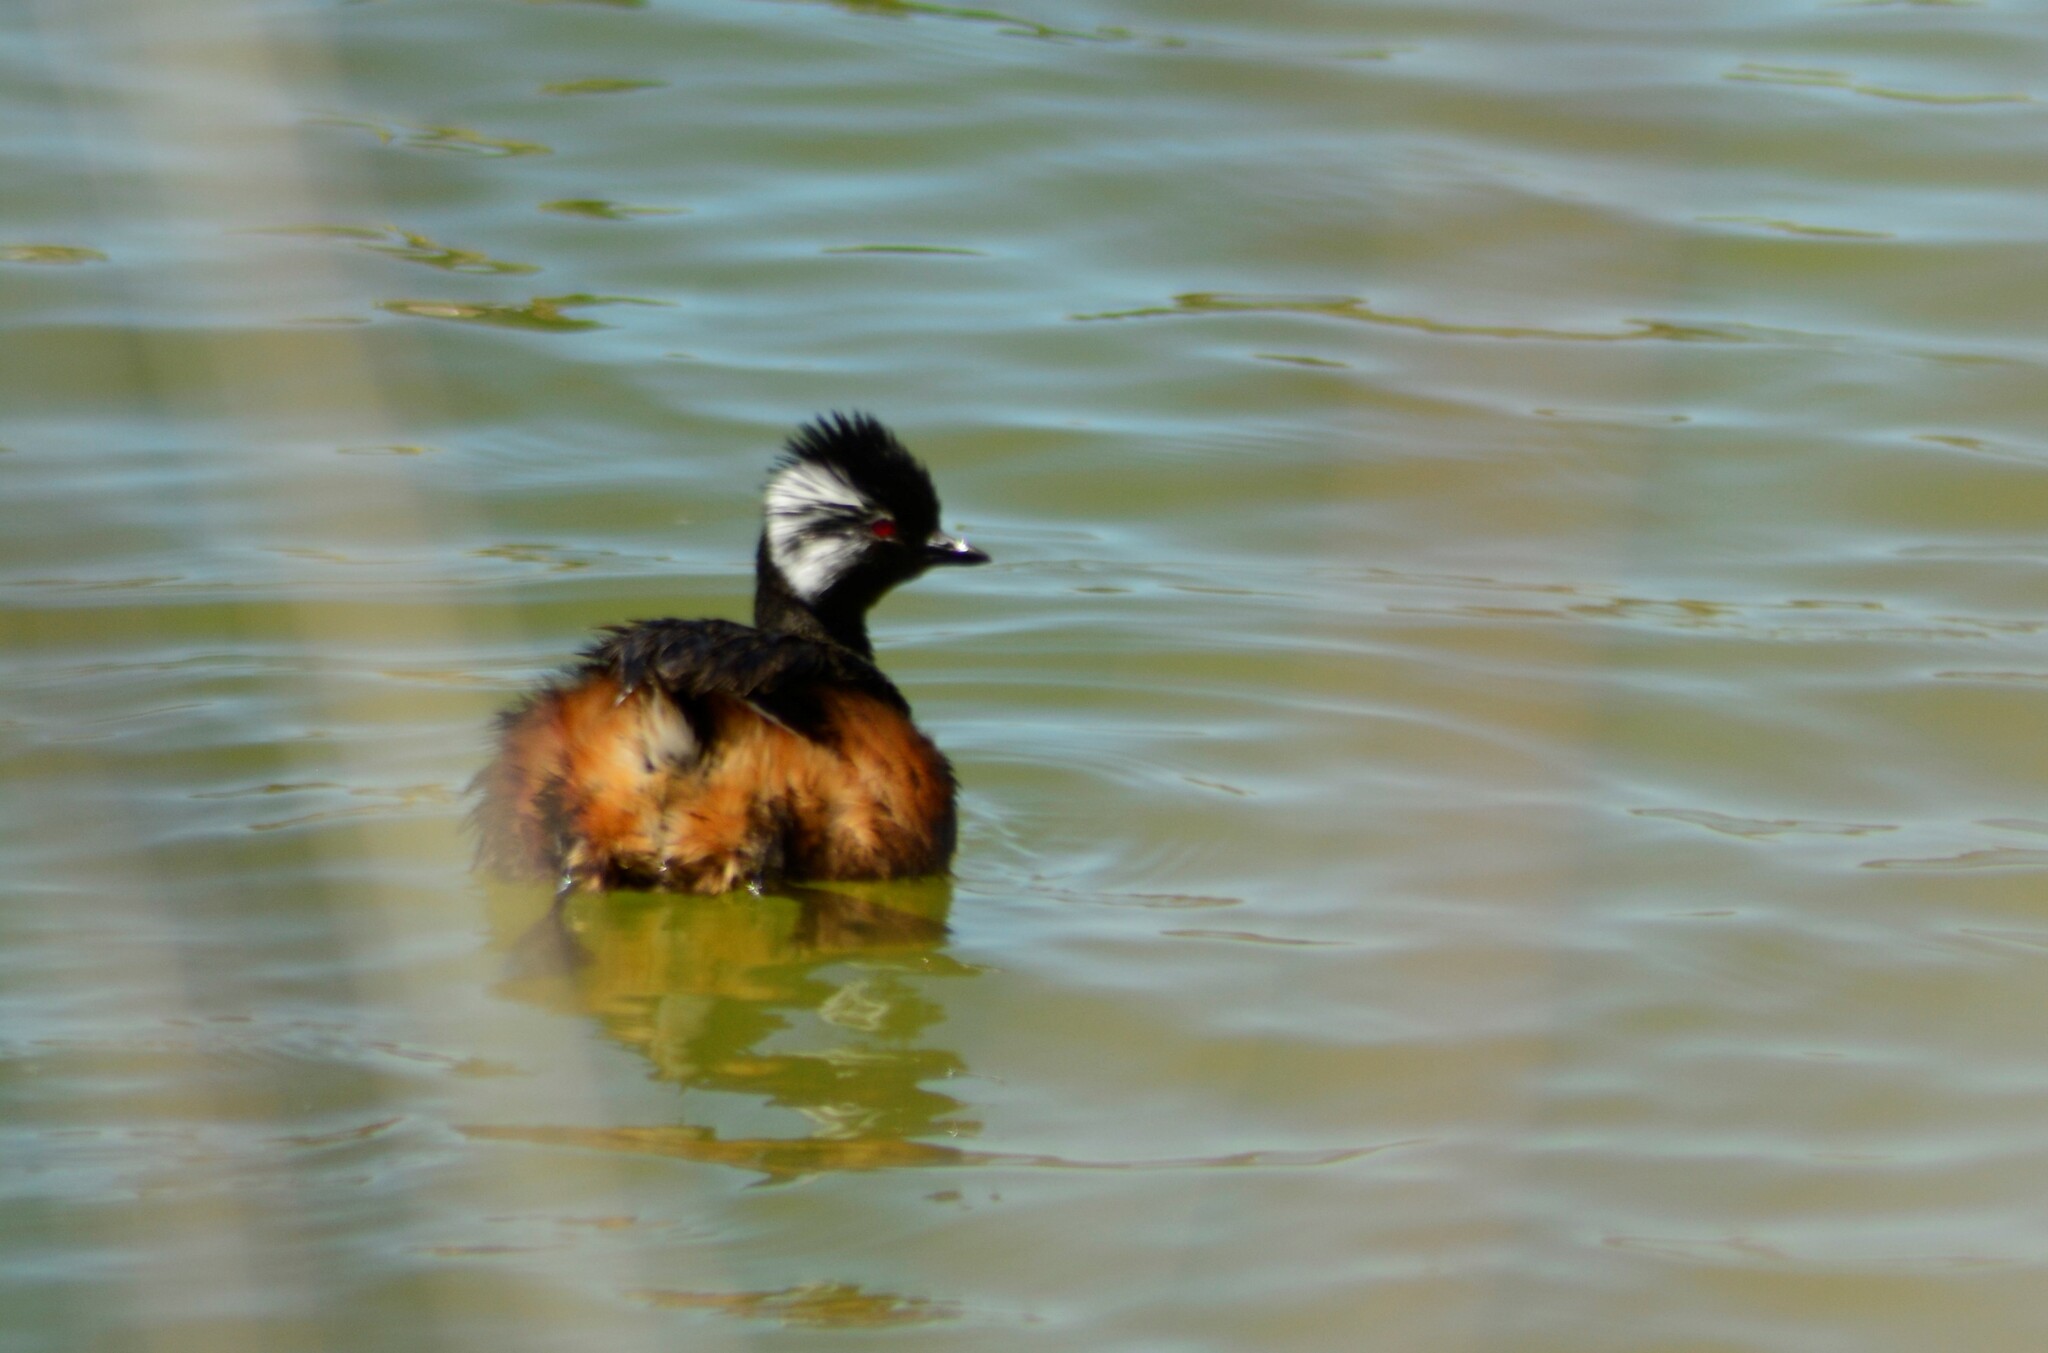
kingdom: Animalia
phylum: Chordata
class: Aves
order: Podicipediformes
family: Podicipedidae
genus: Rollandia
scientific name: Rollandia rolland
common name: White-tufted grebe
